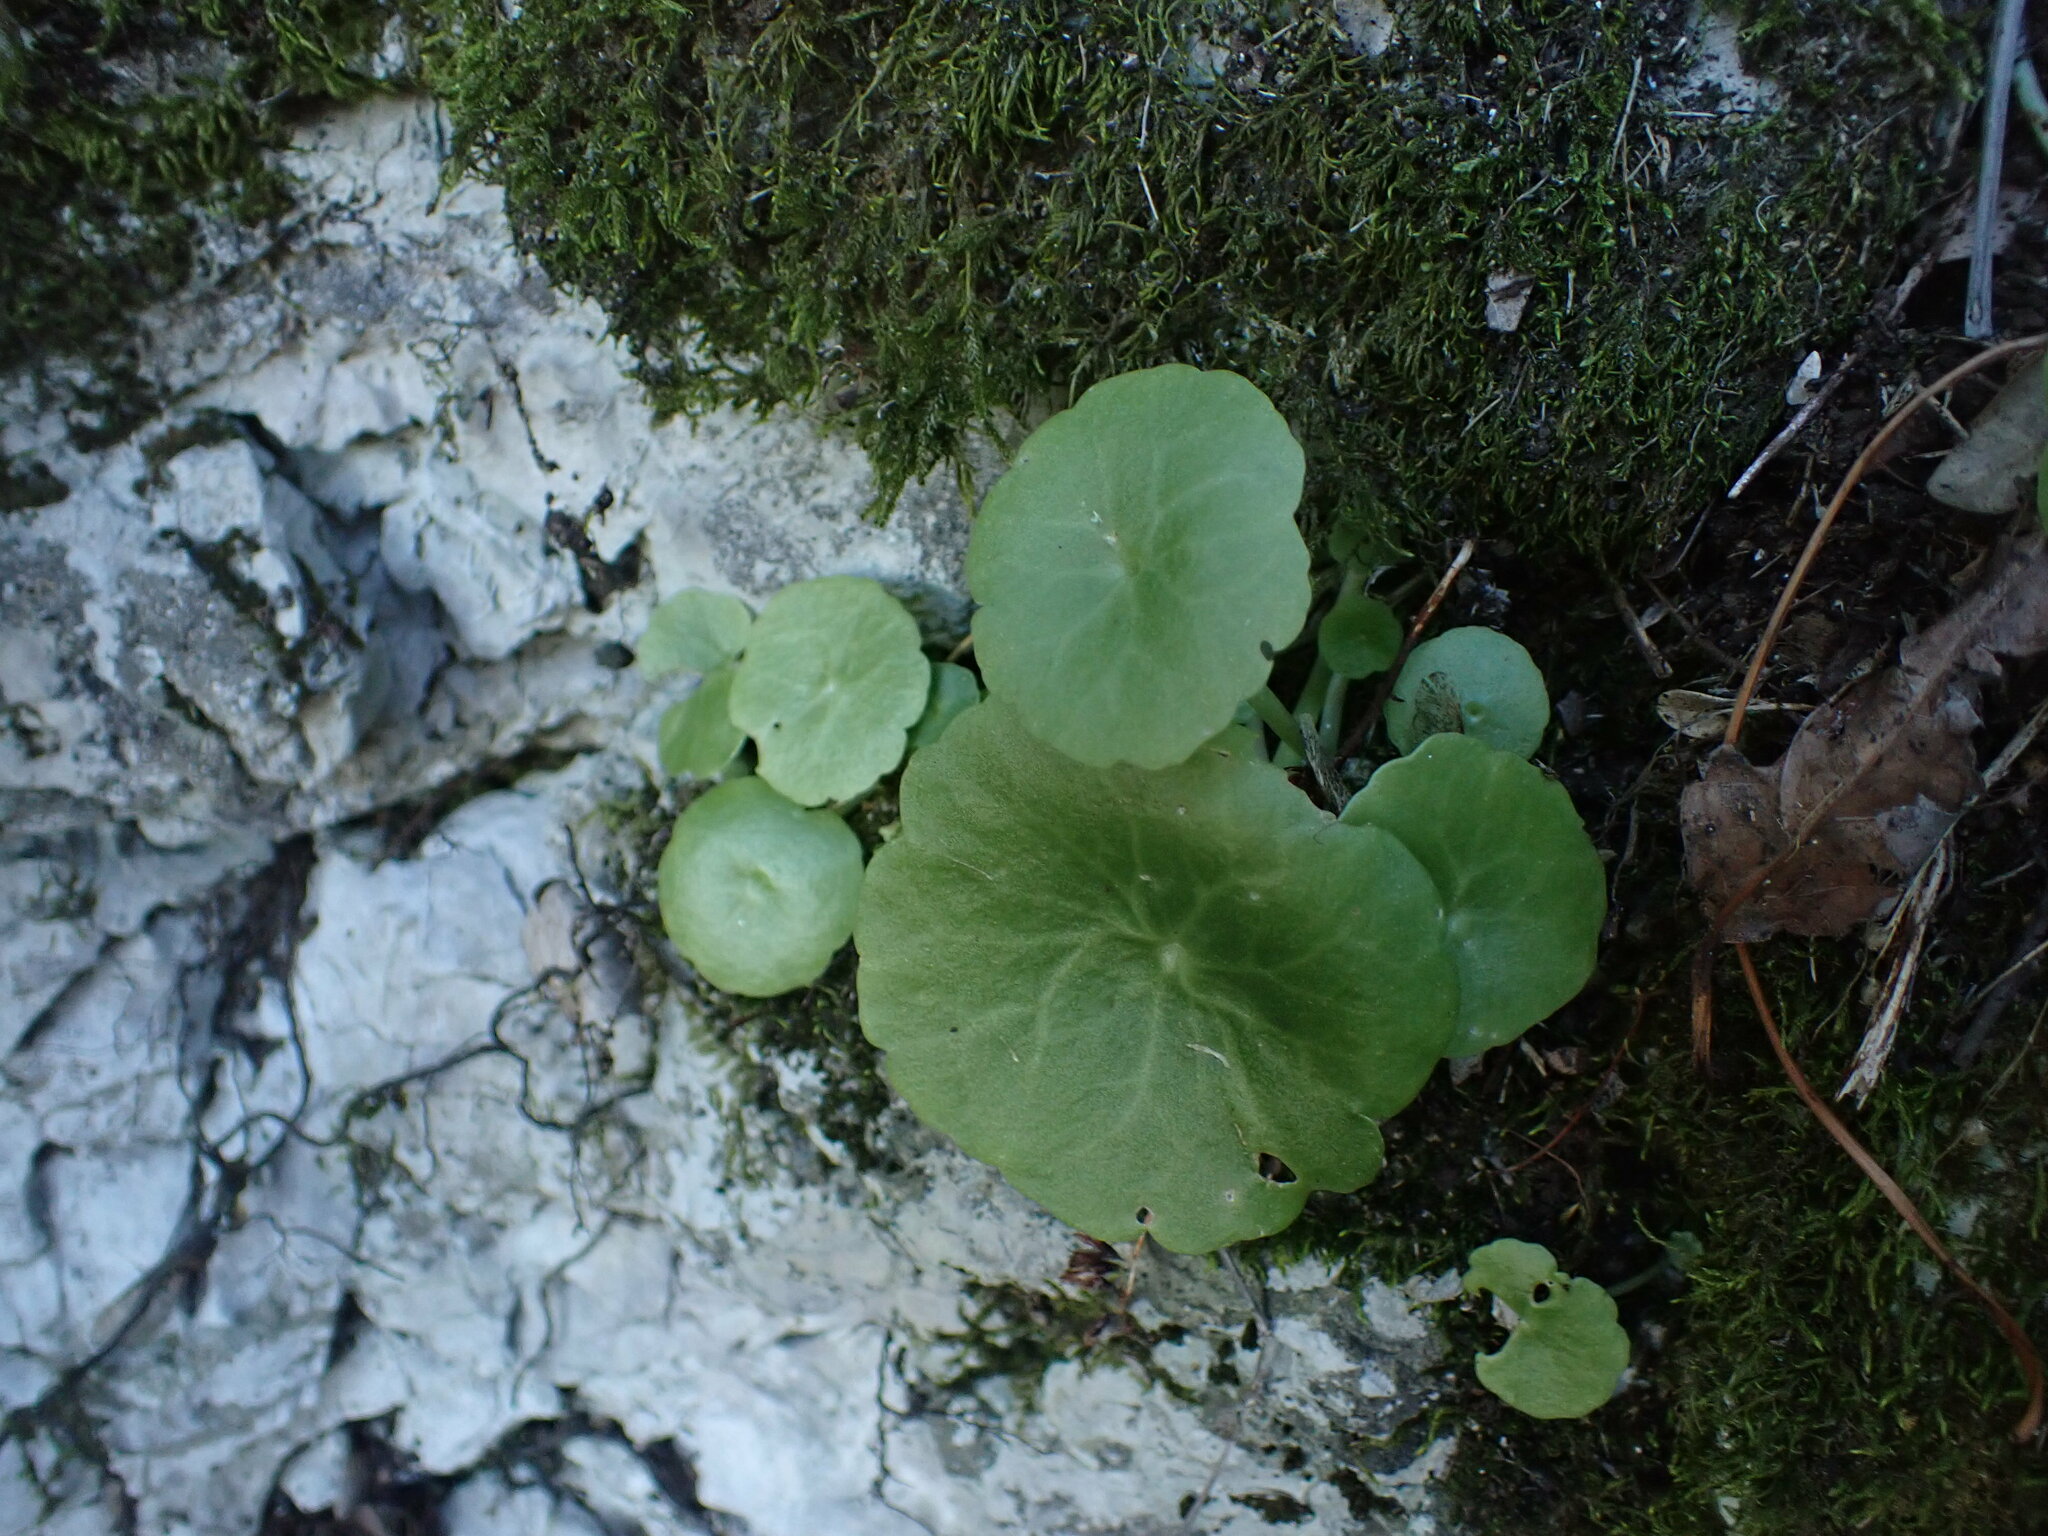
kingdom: Plantae
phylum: Tracheophyta
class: Magnoliopsida
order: Saxifragales
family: Crassulaceae
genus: Umbilicus
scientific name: Umbilicus rupestris
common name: Navelwort
